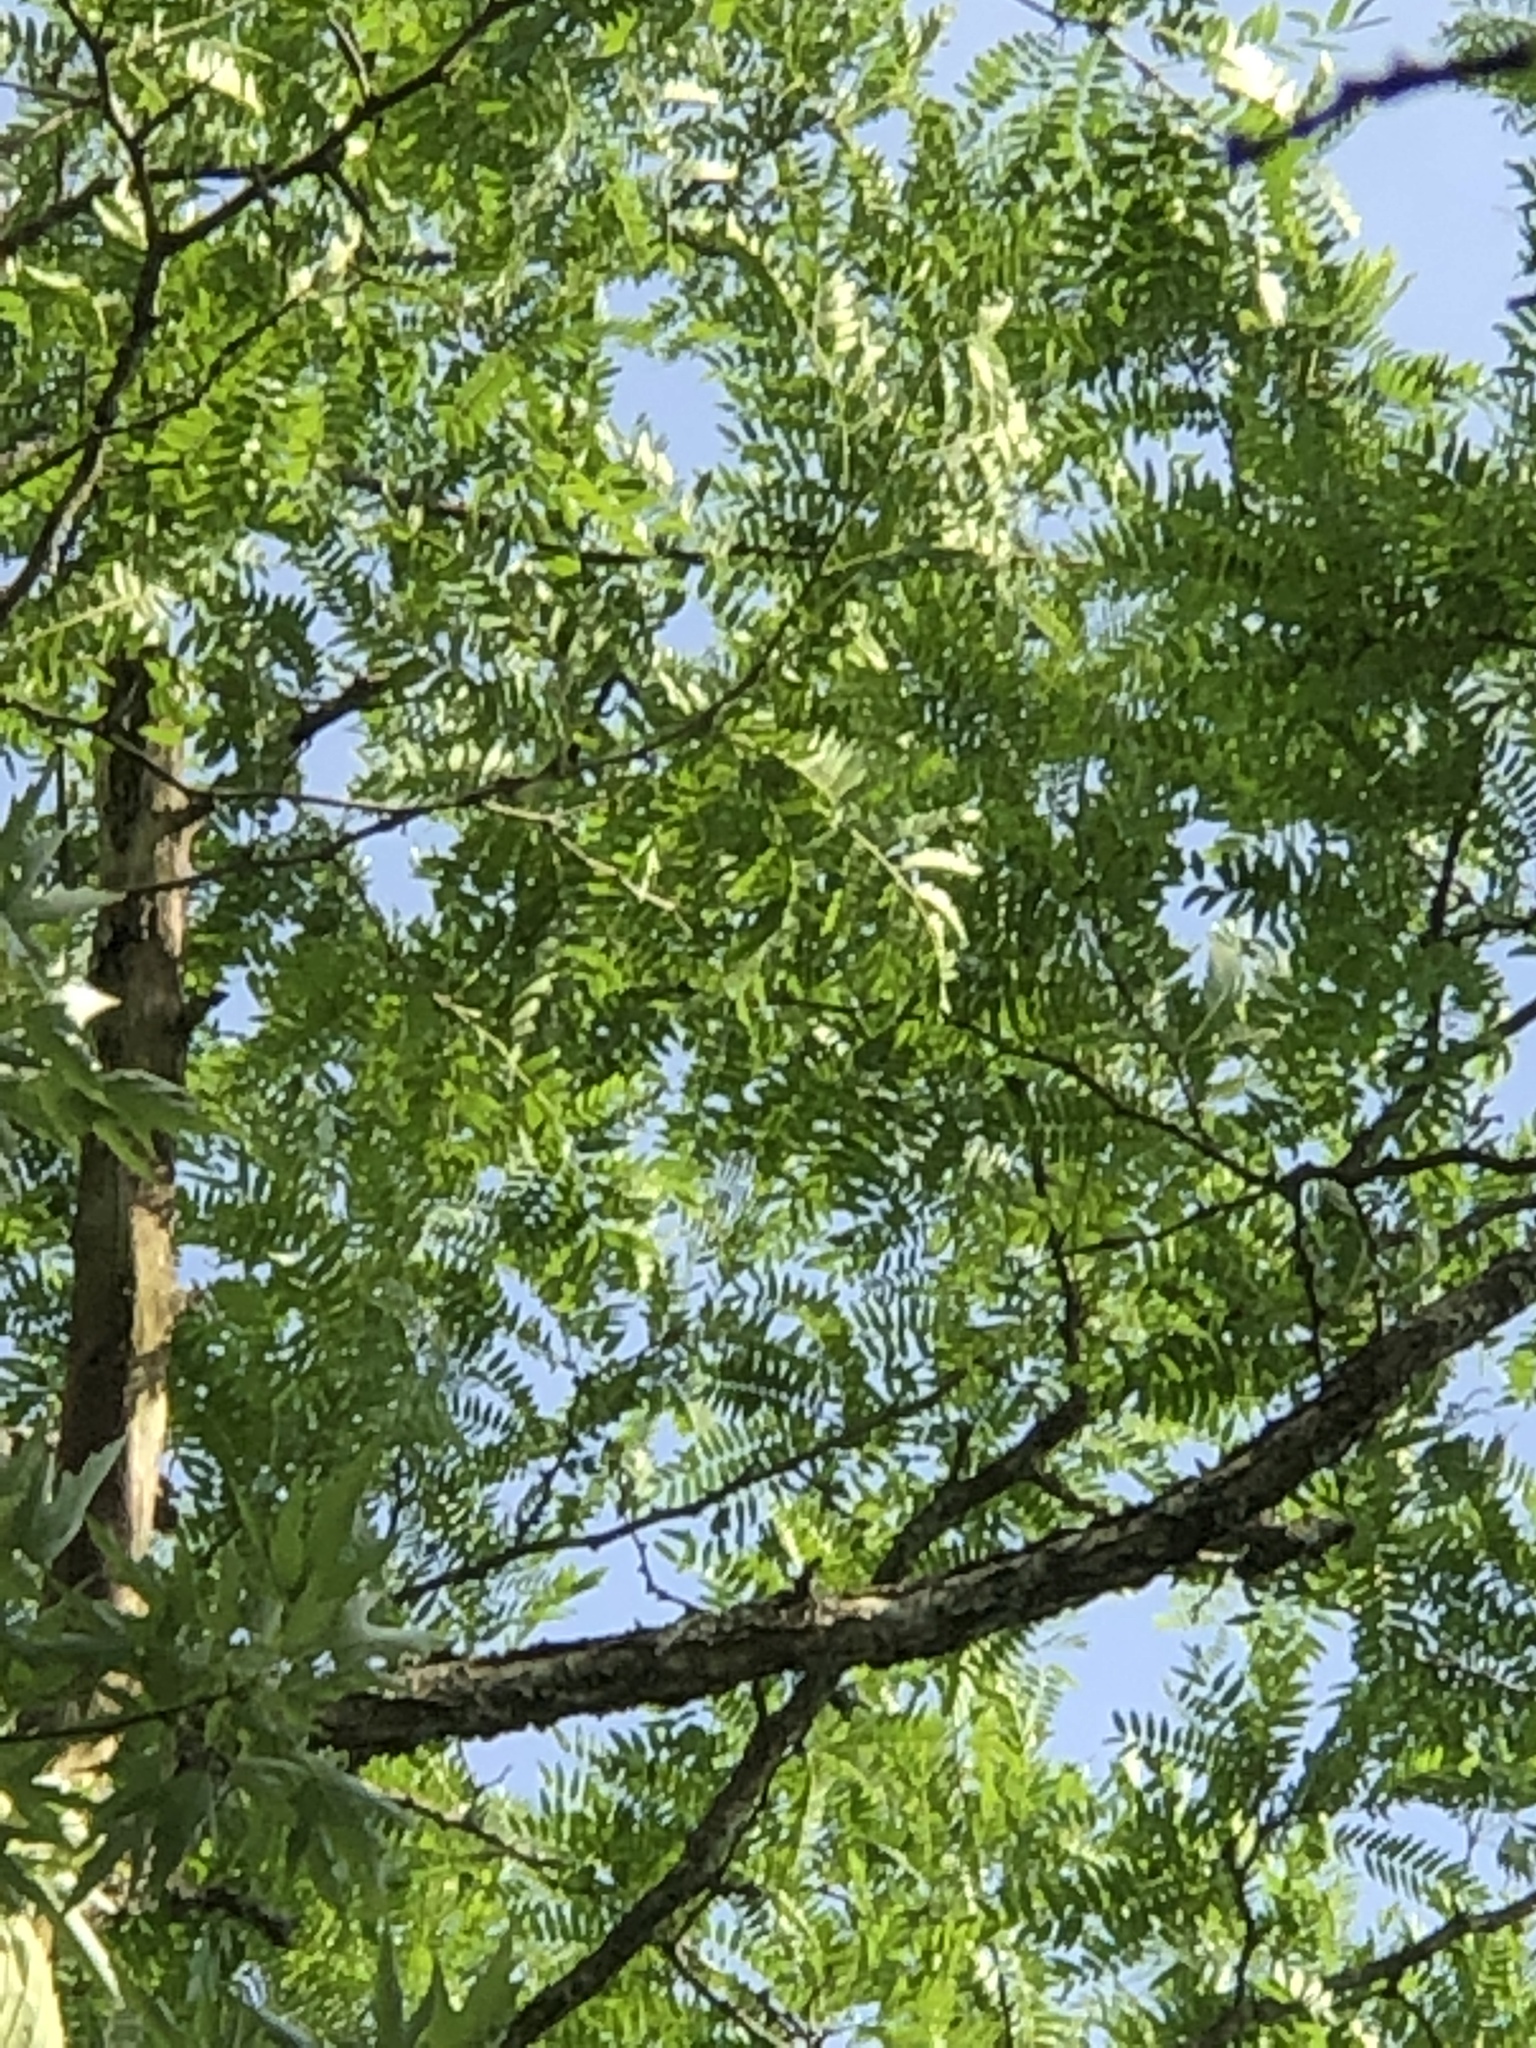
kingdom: Plantae
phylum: Tracheophyta
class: Magnoliopsida
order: Fabales
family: Fabaceae
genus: Gleditsia
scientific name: Gleditsia triacanthos
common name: Common honeylocust
